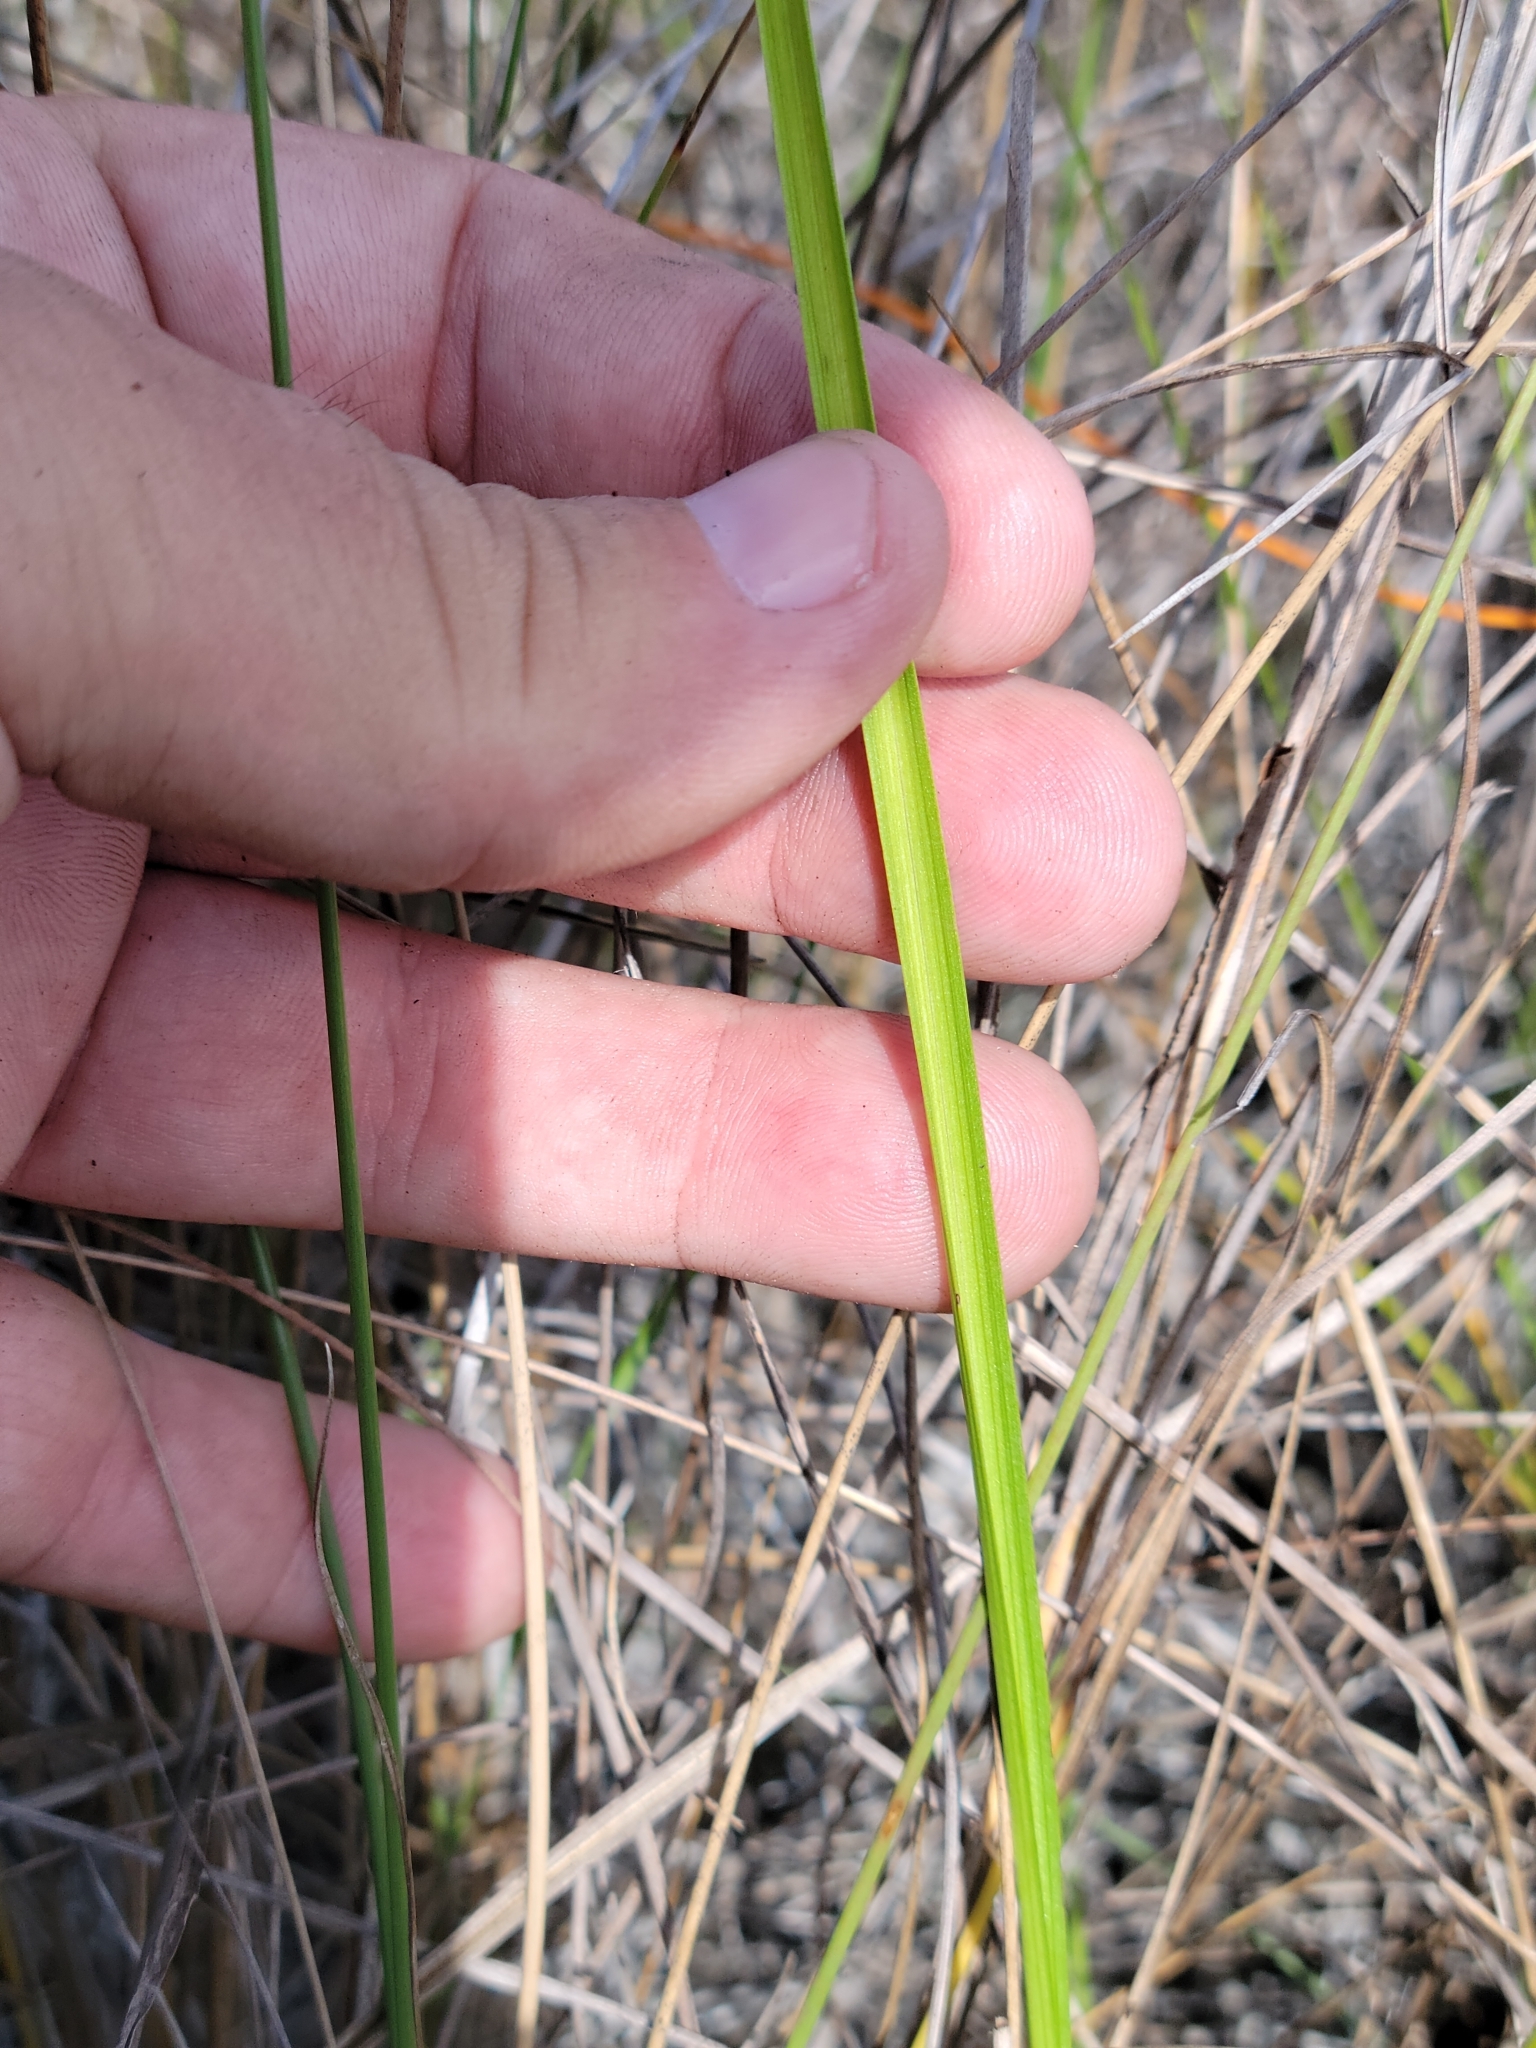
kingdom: Plantae
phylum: Tracheophyta
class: Liliopsida
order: Asparagales
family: Orchidaceae
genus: Calopogon
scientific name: Calopogon tuberosus
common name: Grass-pink
